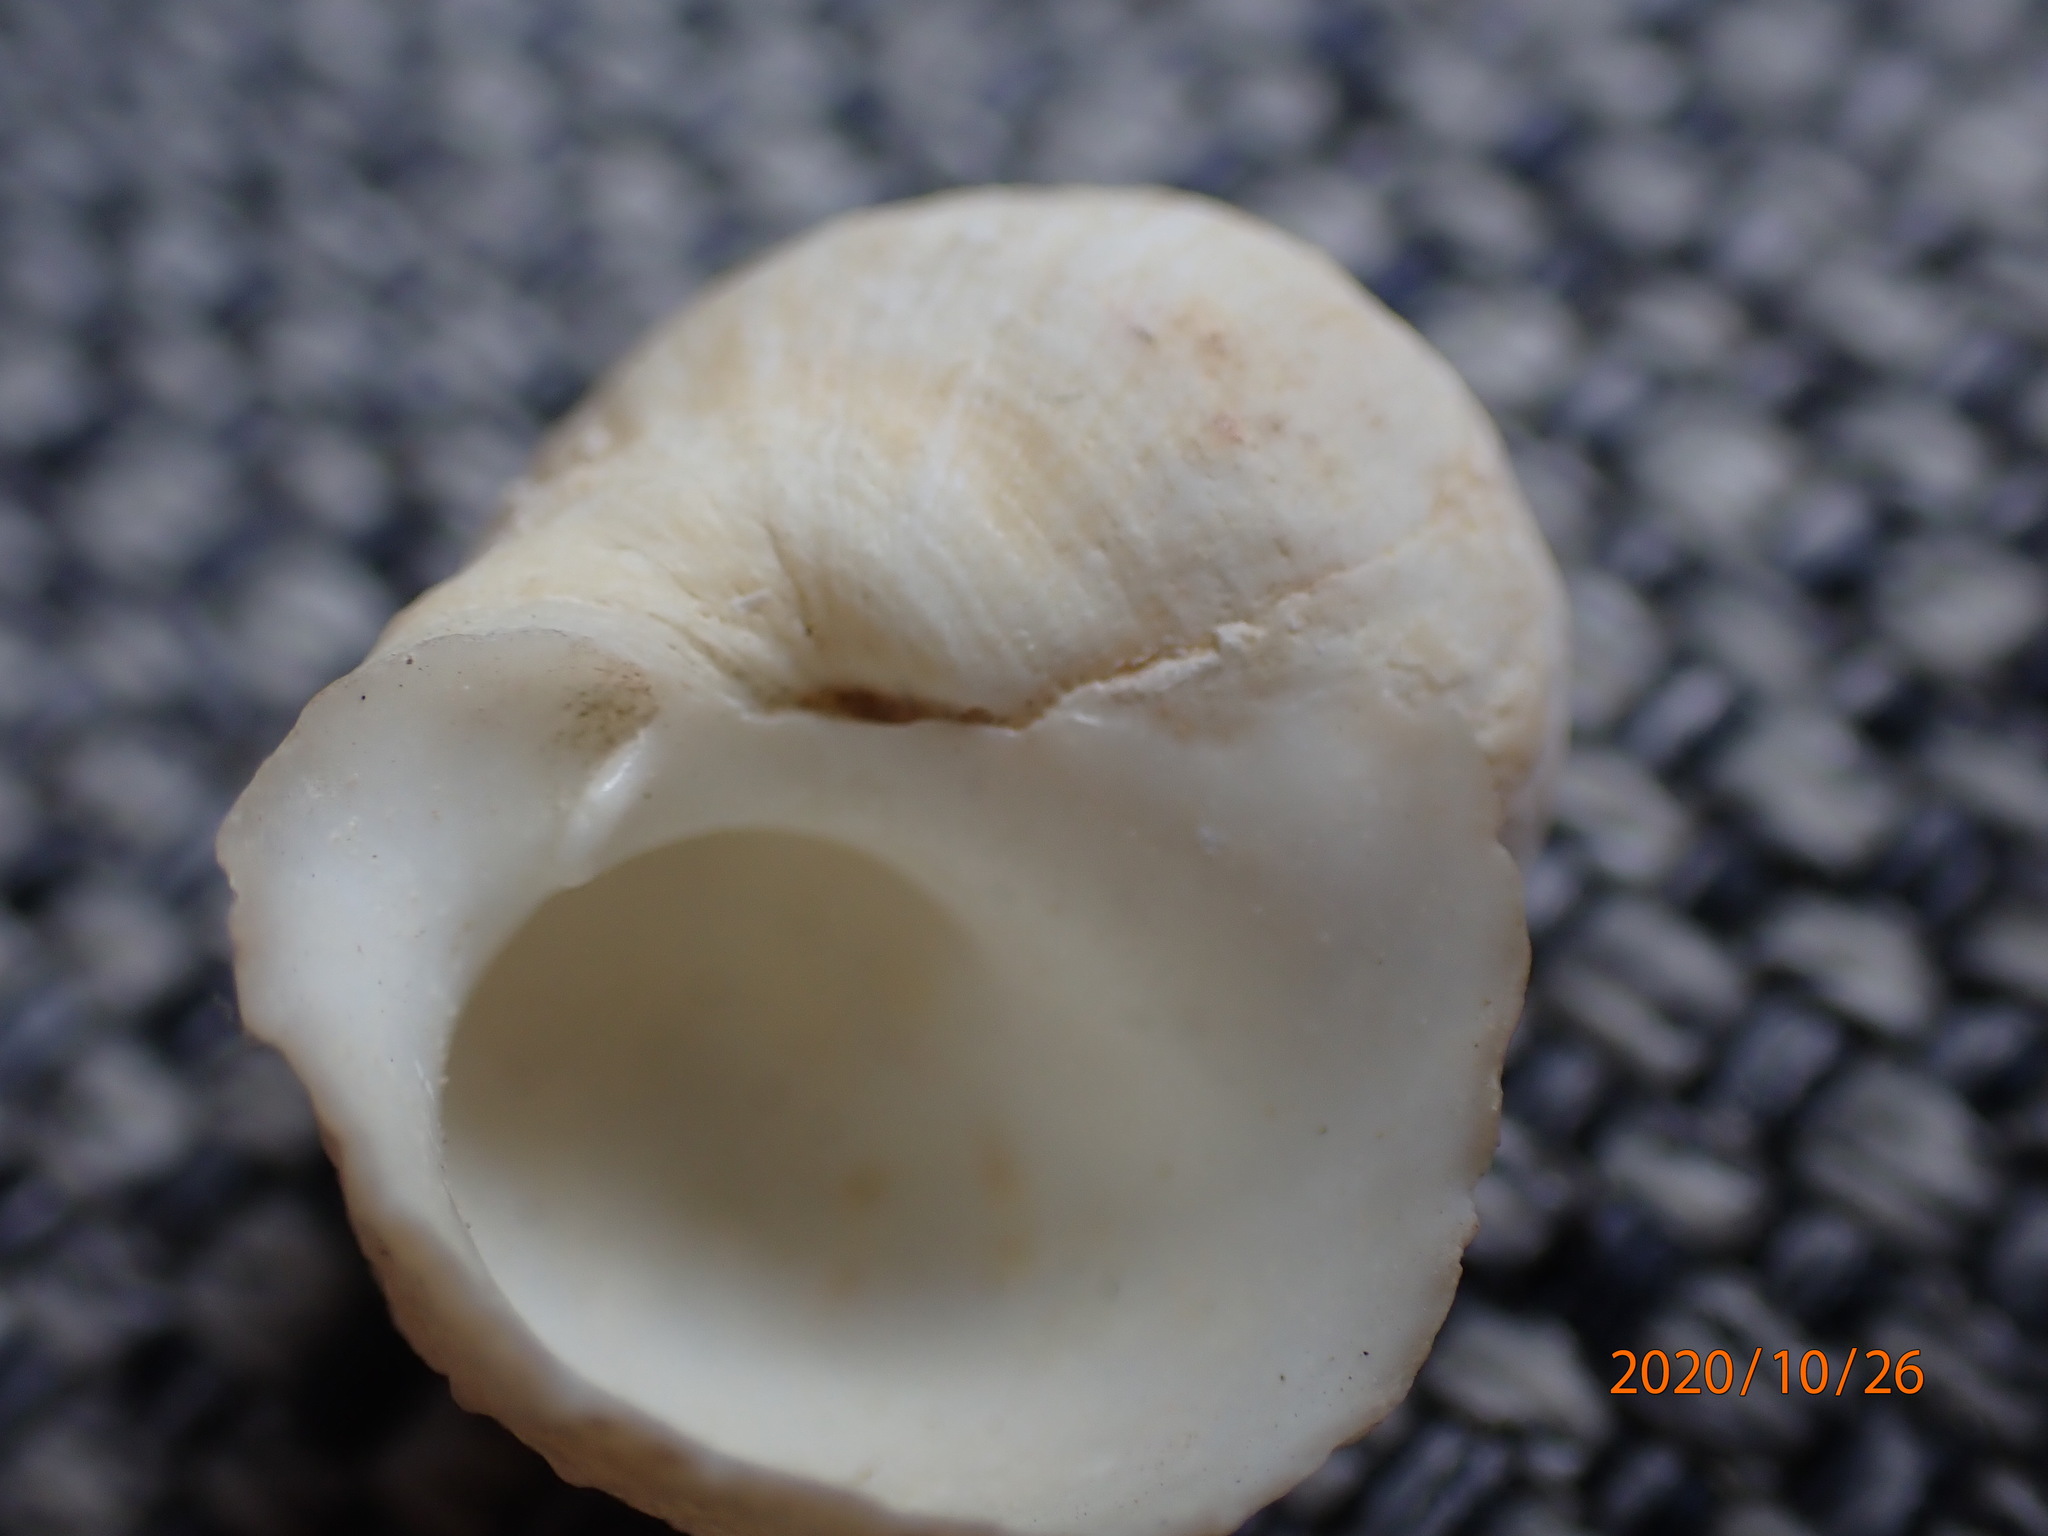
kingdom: Animalia
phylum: Mollusca
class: Gastropoda
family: Modulidae
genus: Indomodulus
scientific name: Indomodulus tectum
